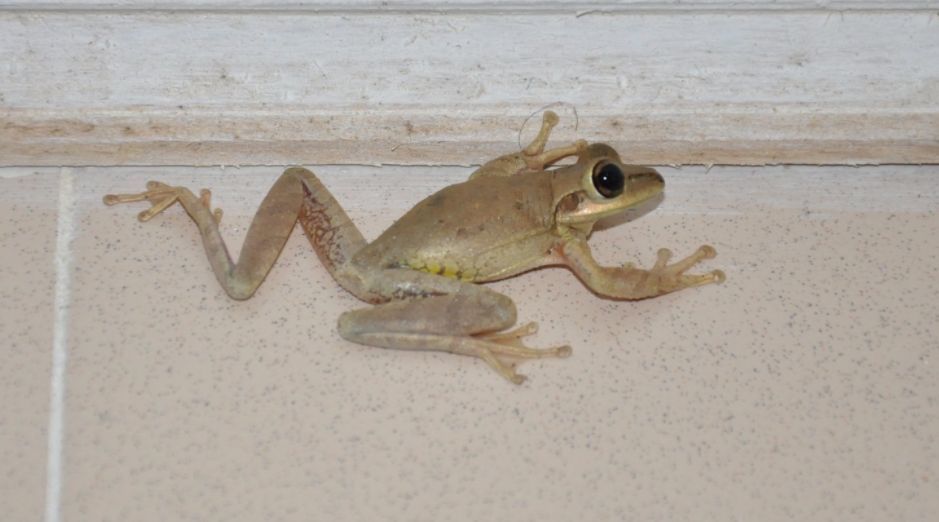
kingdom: Animalia
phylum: Chordata
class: Amphibia
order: Anura
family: Hylidae
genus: Osteopilus
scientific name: Osteopilus septentrionalis
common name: Cuban treefrog
